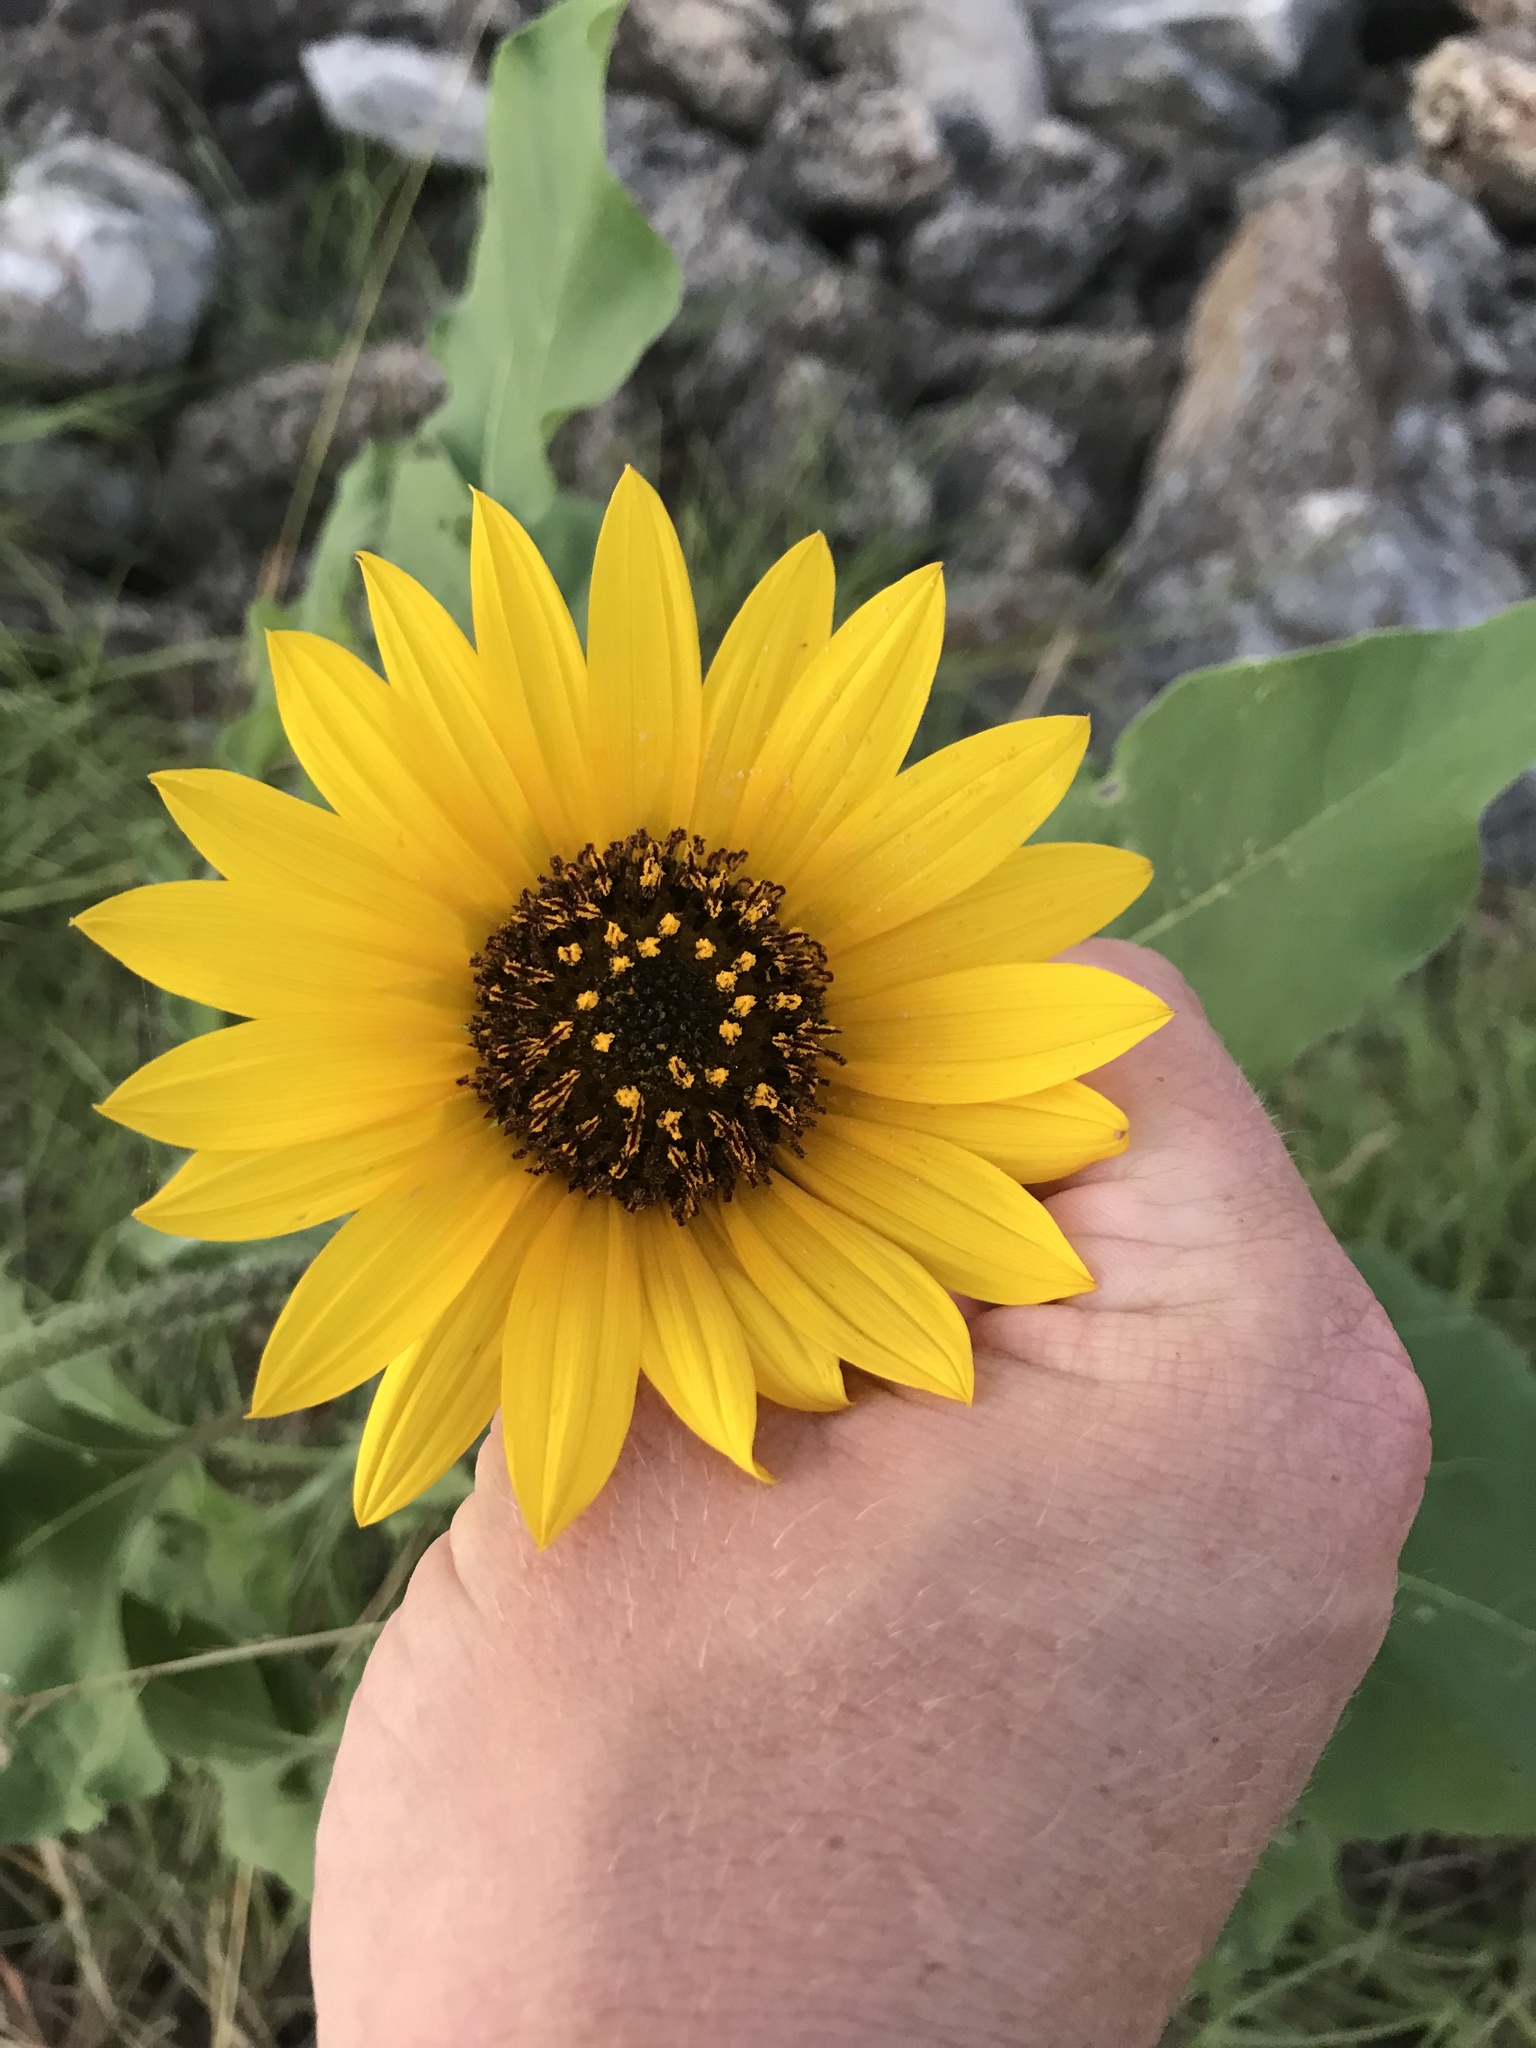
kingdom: Plantae
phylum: Tracheophyta
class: Magnoliopsida
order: Asterales
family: Asteraceae
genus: Helianthus
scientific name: Helianthus annuus
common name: Sunflower
